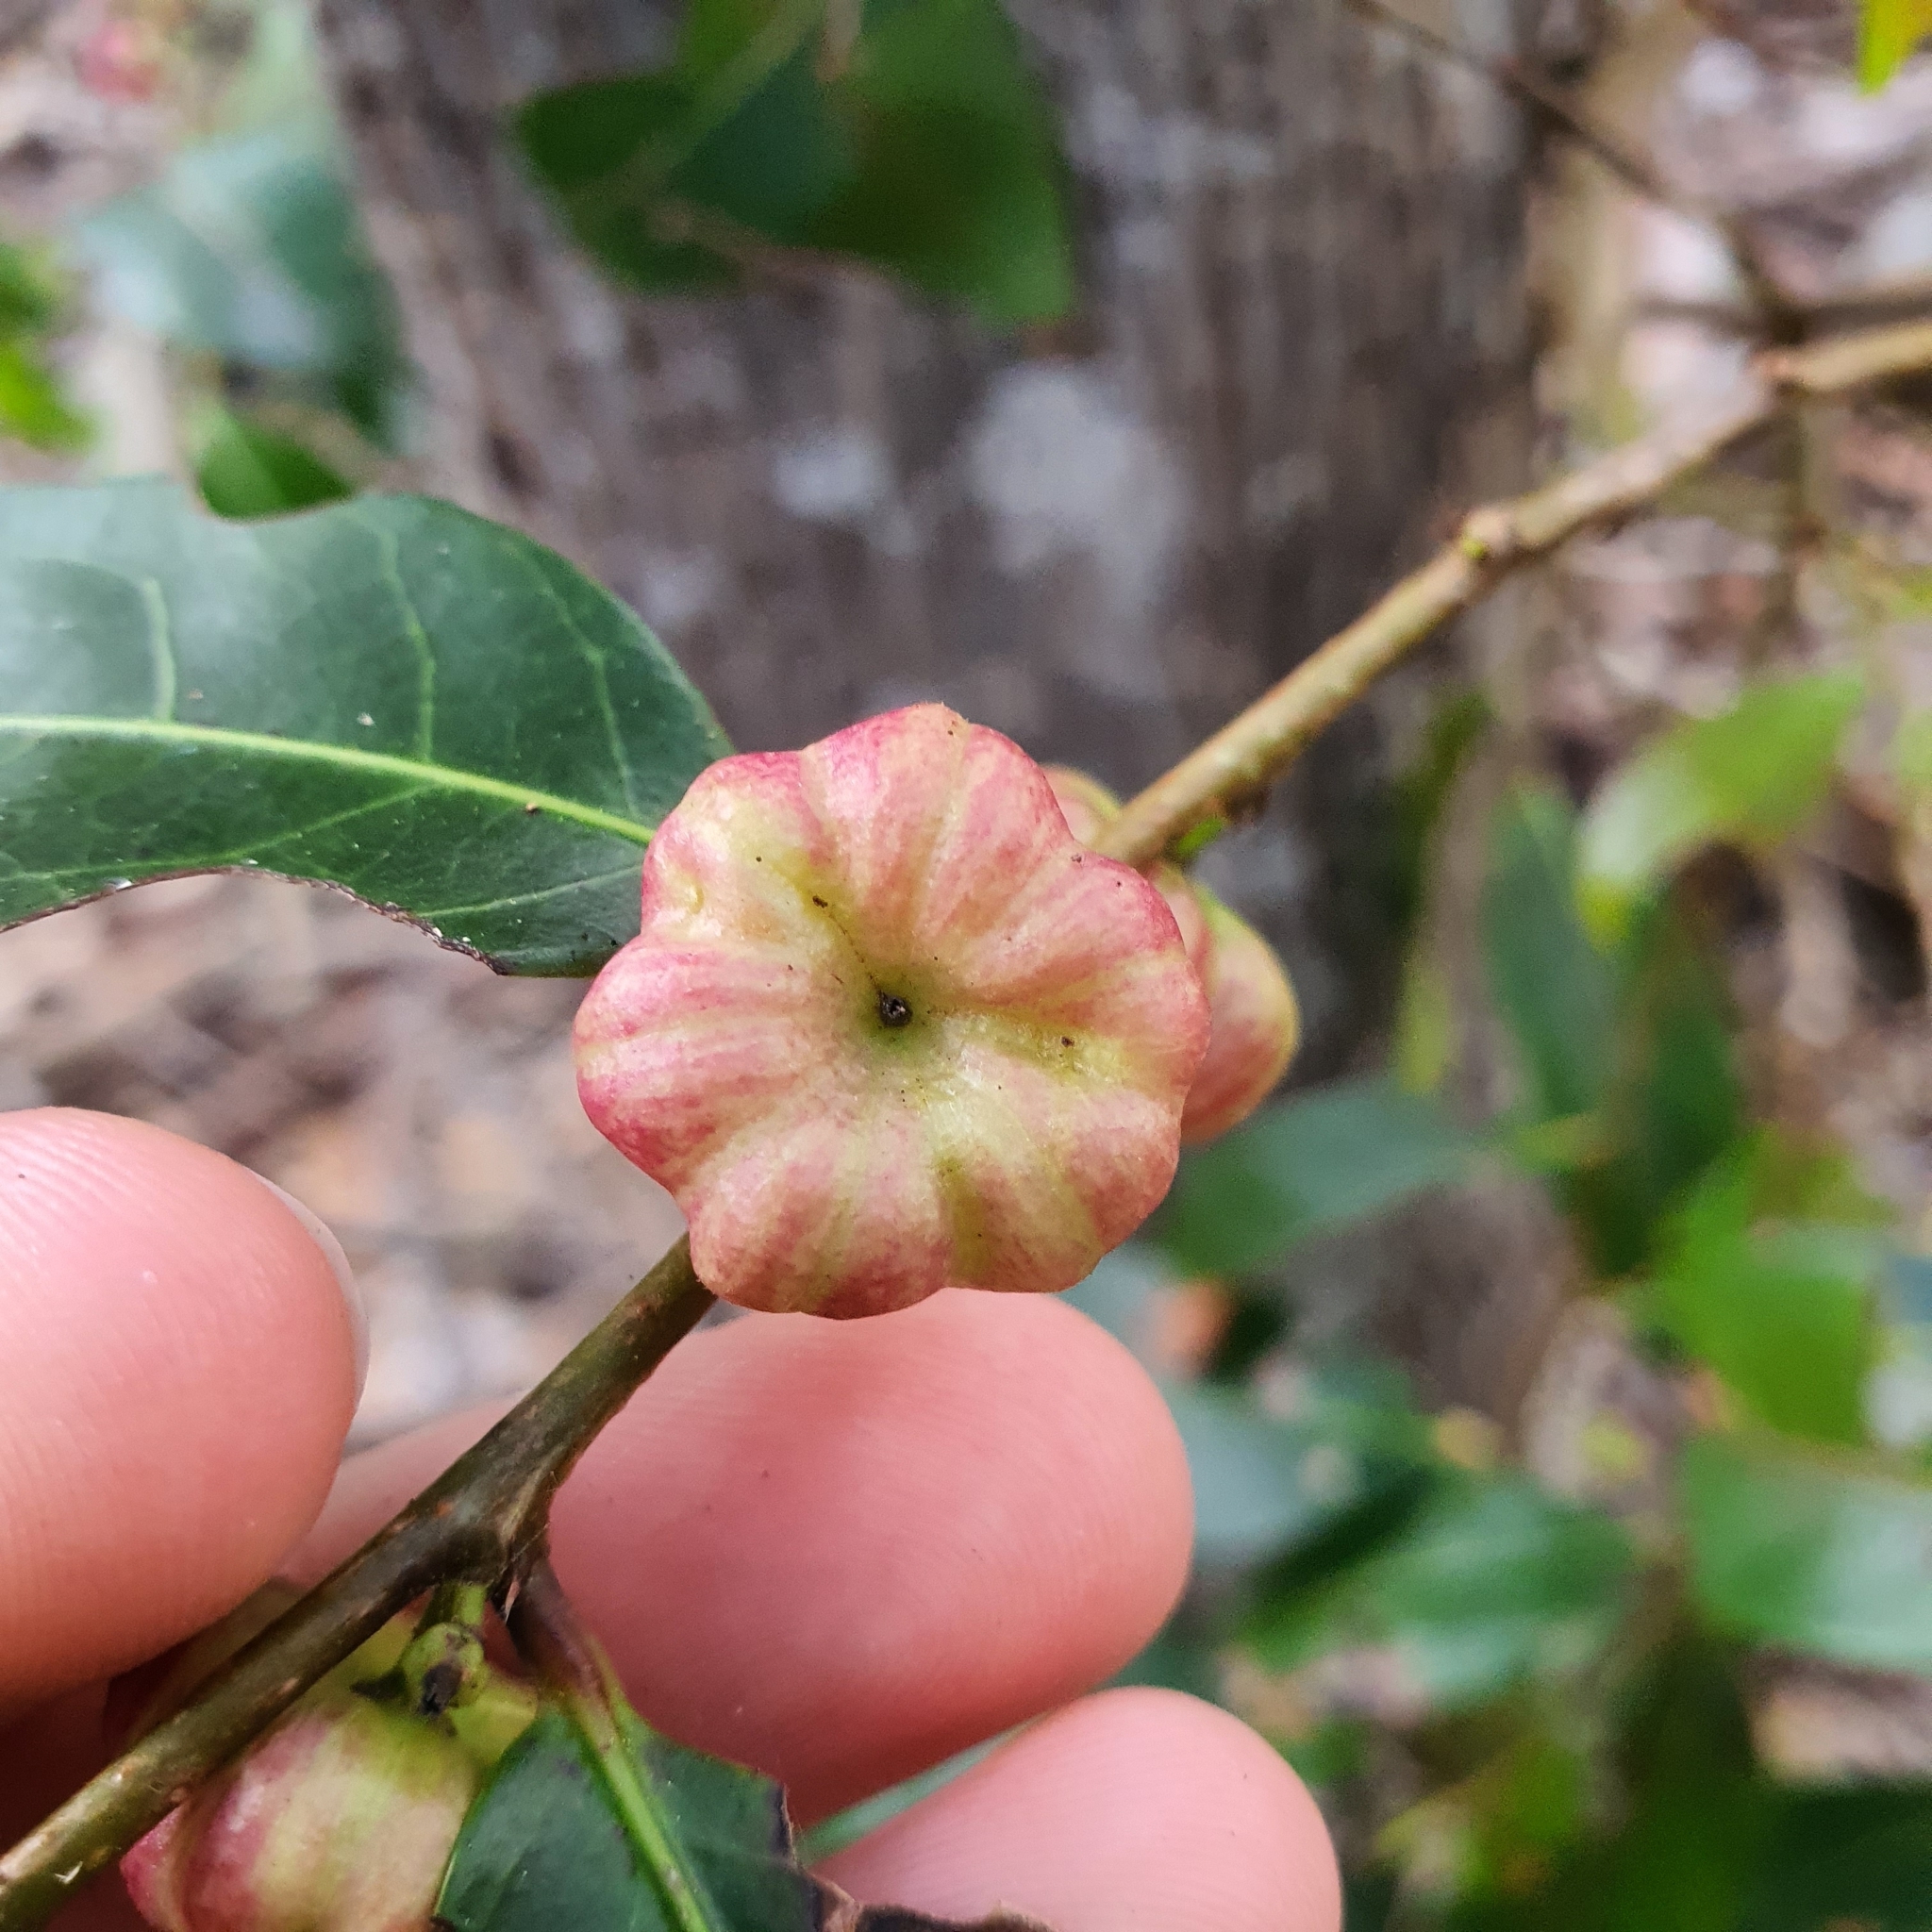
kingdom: Plantae
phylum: Tracheophyta
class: Magnoliopsida
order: Malpighiales
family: Phyllanthaceae
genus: Glochidion
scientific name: Glochidion ferdinandi
